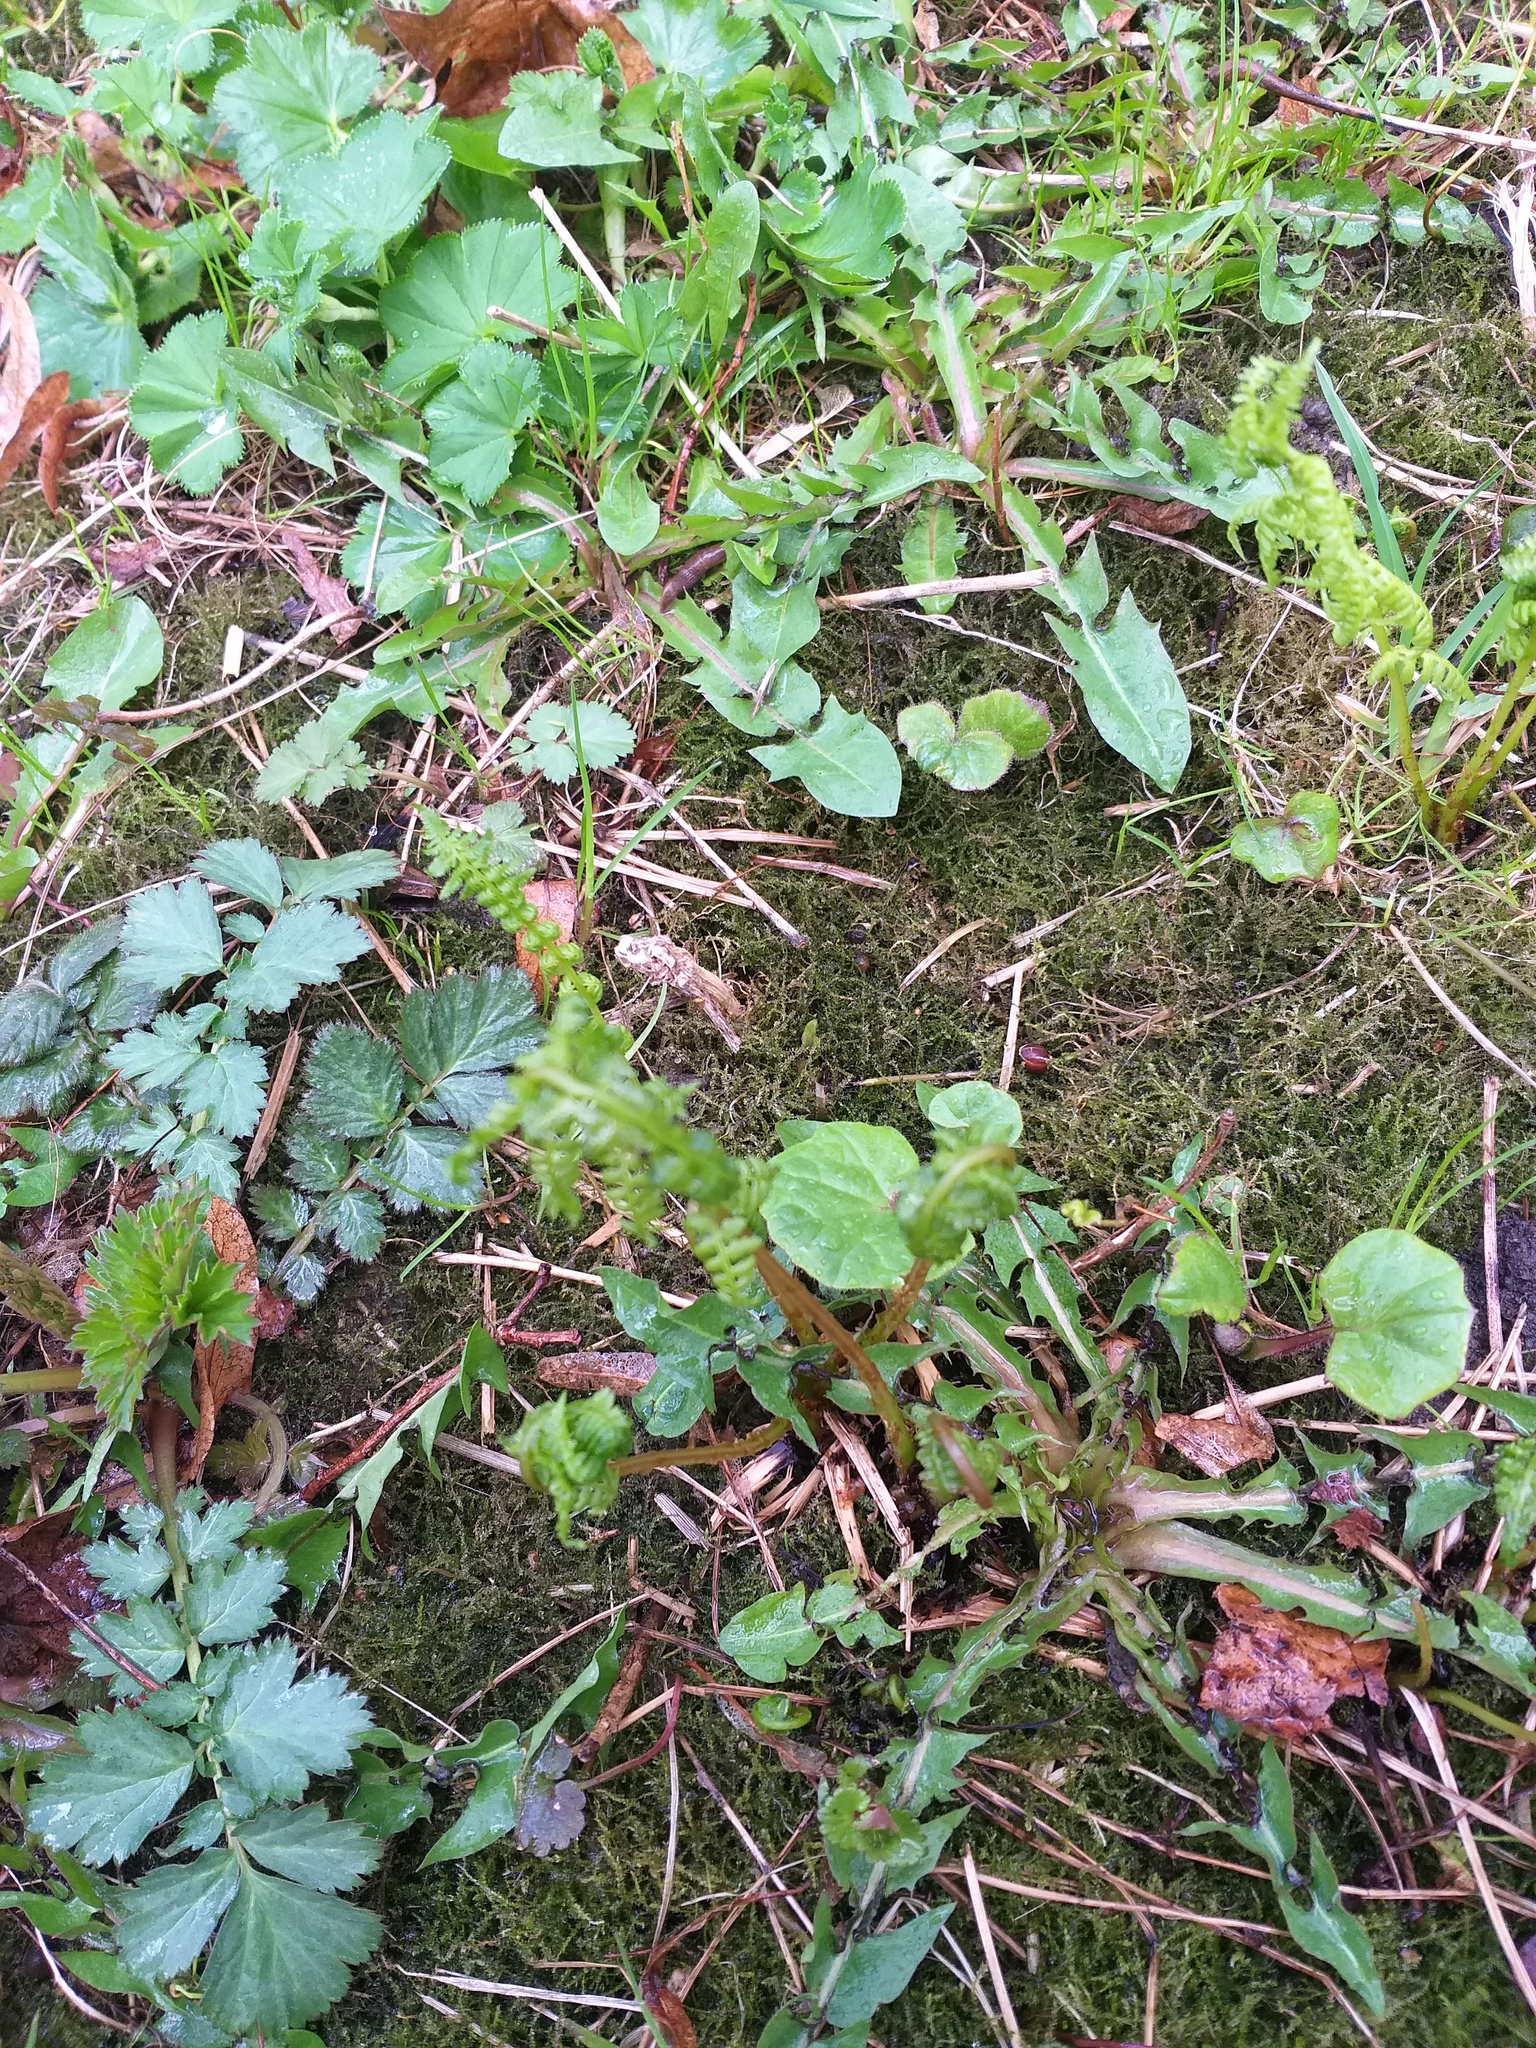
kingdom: Plantae
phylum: Tracheophyta
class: Polypodiopsida
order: Polypodiales
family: Athyriaceae
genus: Athyrium
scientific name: Athyrium filix-femina
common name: Lady fern
